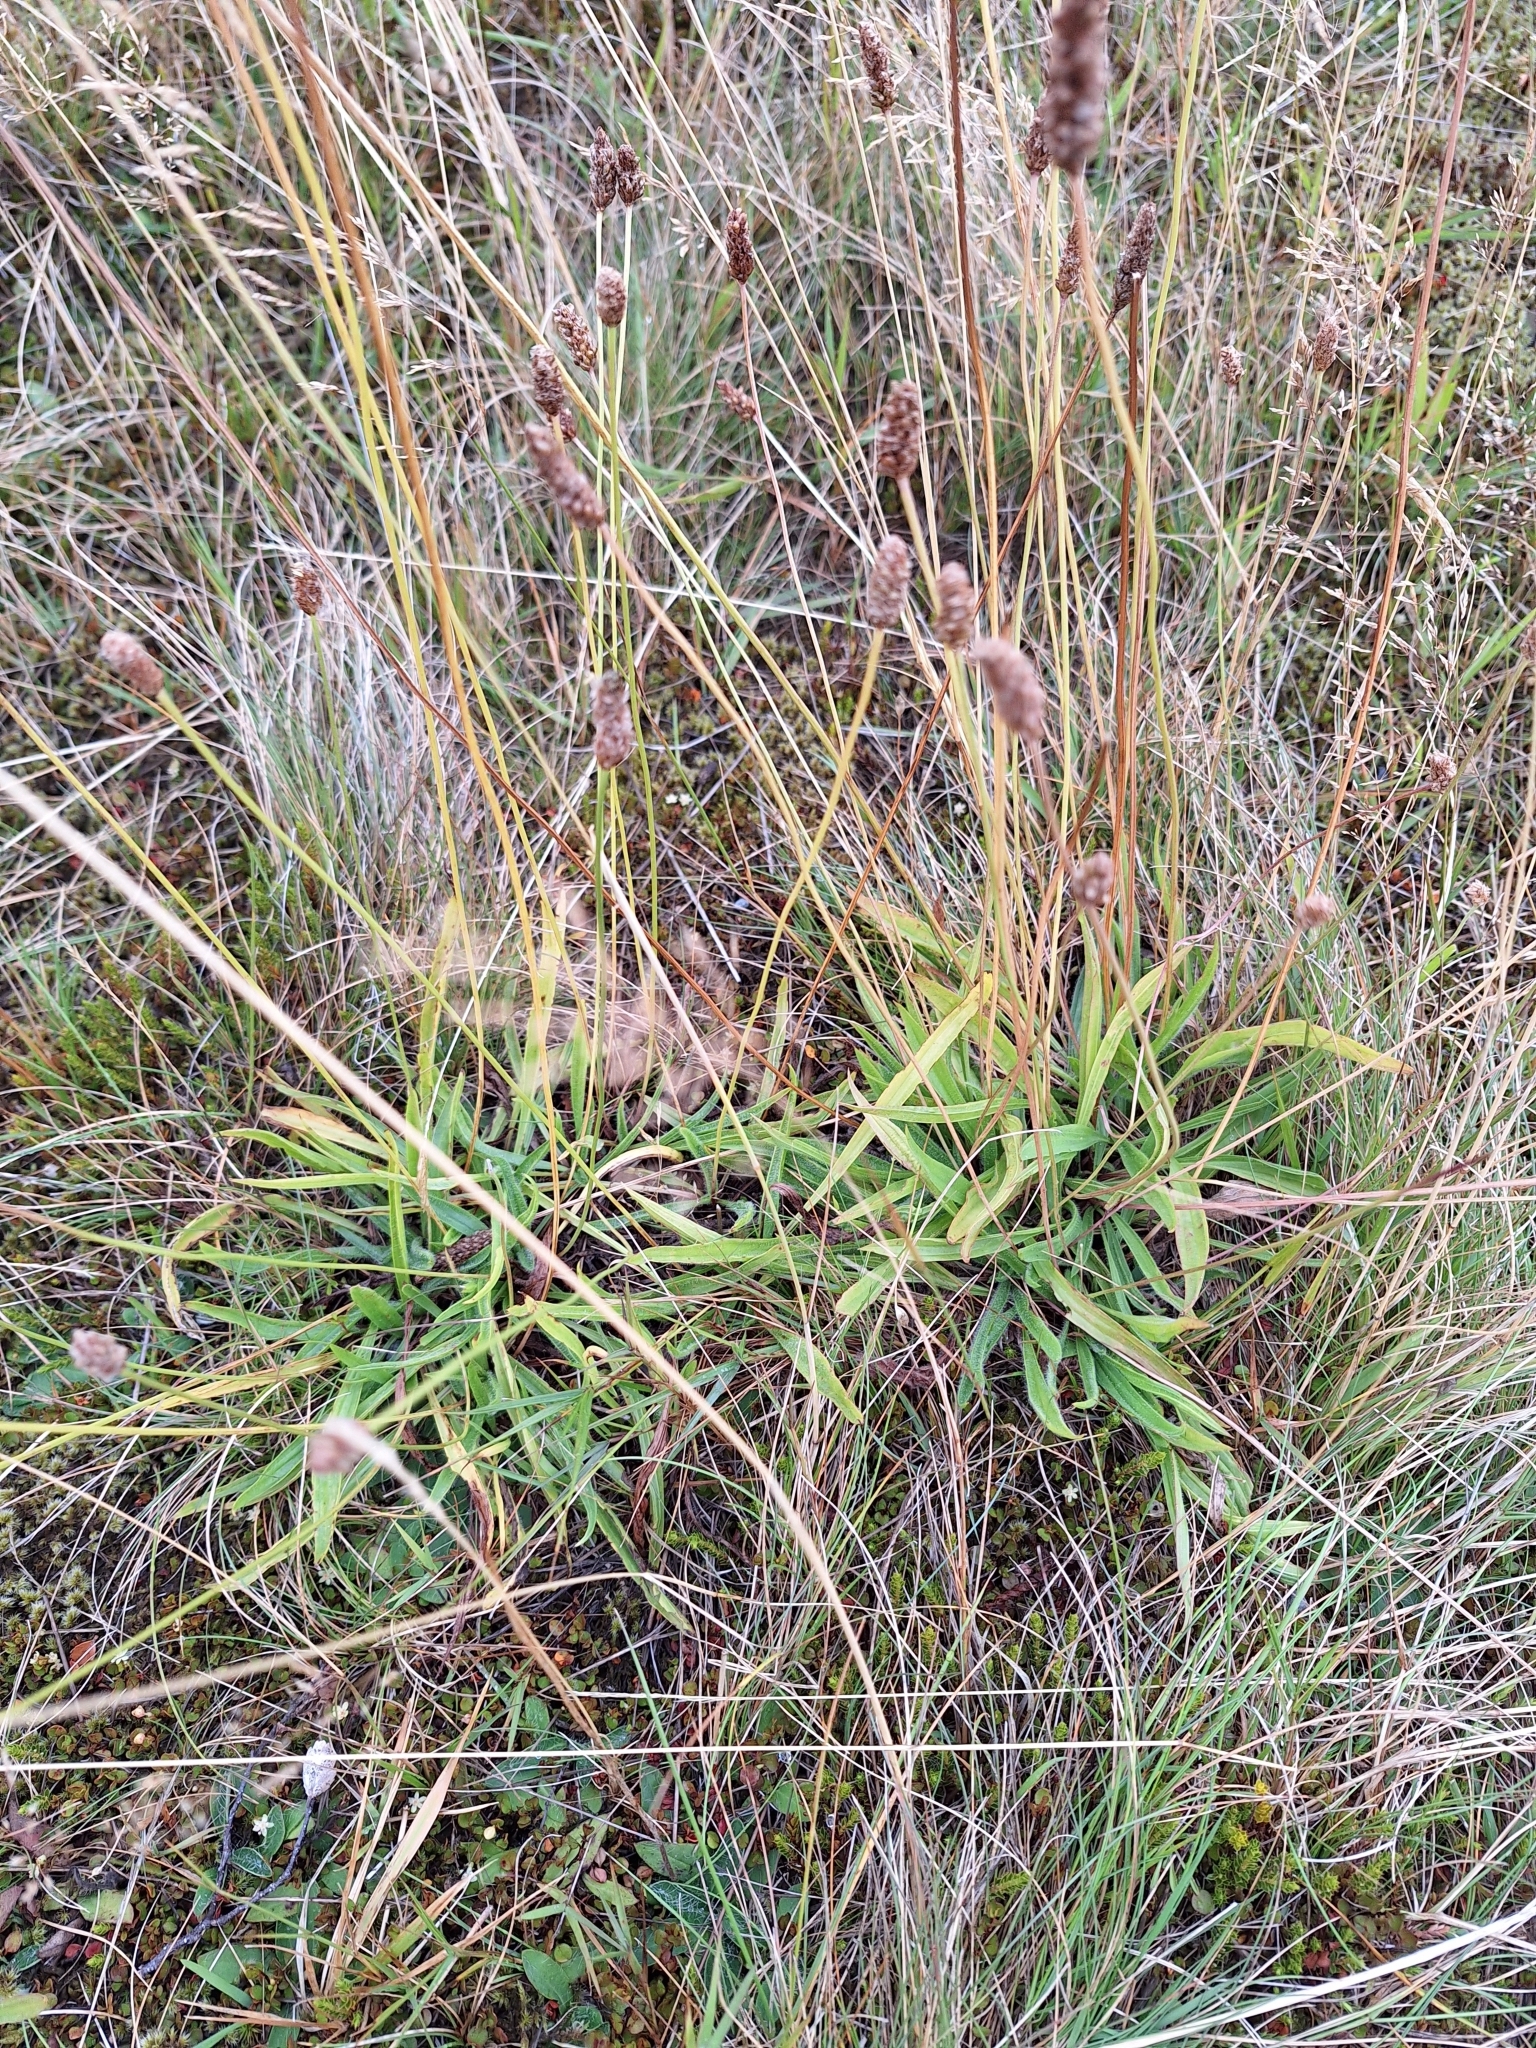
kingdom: Plantae
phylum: Tracheophyta
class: Magnoliopsida
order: Lamiales
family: Plantaginaceae
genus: Plantago
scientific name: Plantago lanceolata
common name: Ribwort plantain
